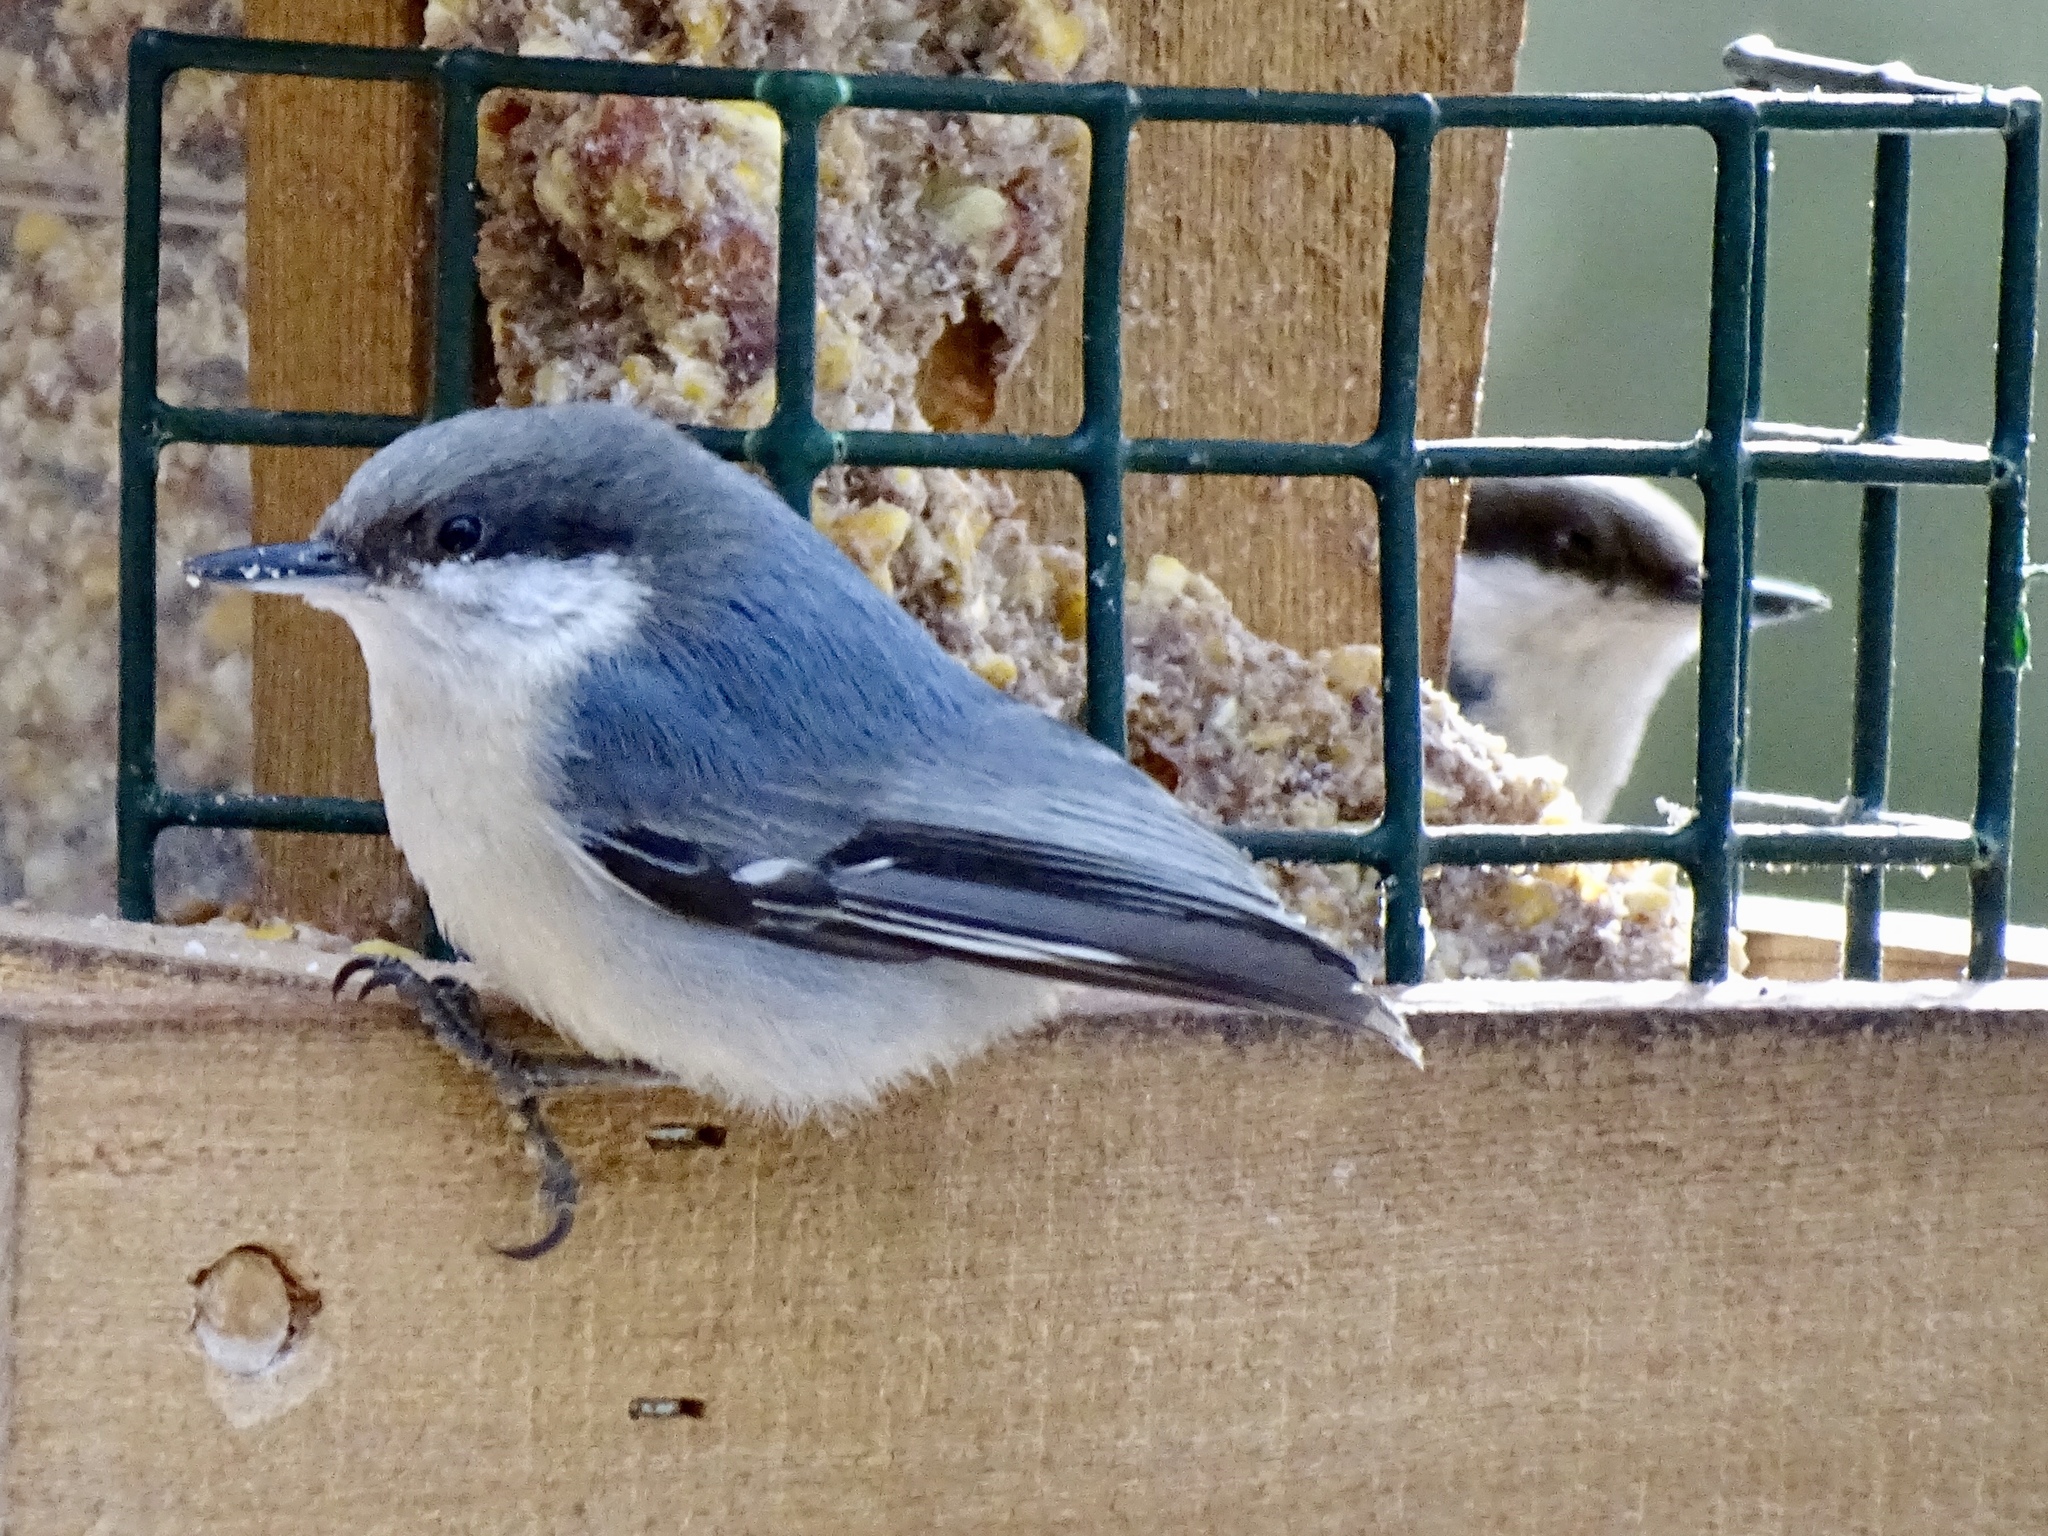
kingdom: Animalia
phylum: Chordata
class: Aves
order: Passeriformes
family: Sittidae
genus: Sitta
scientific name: Sitta pygmaea
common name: Pygmy nuthatch
